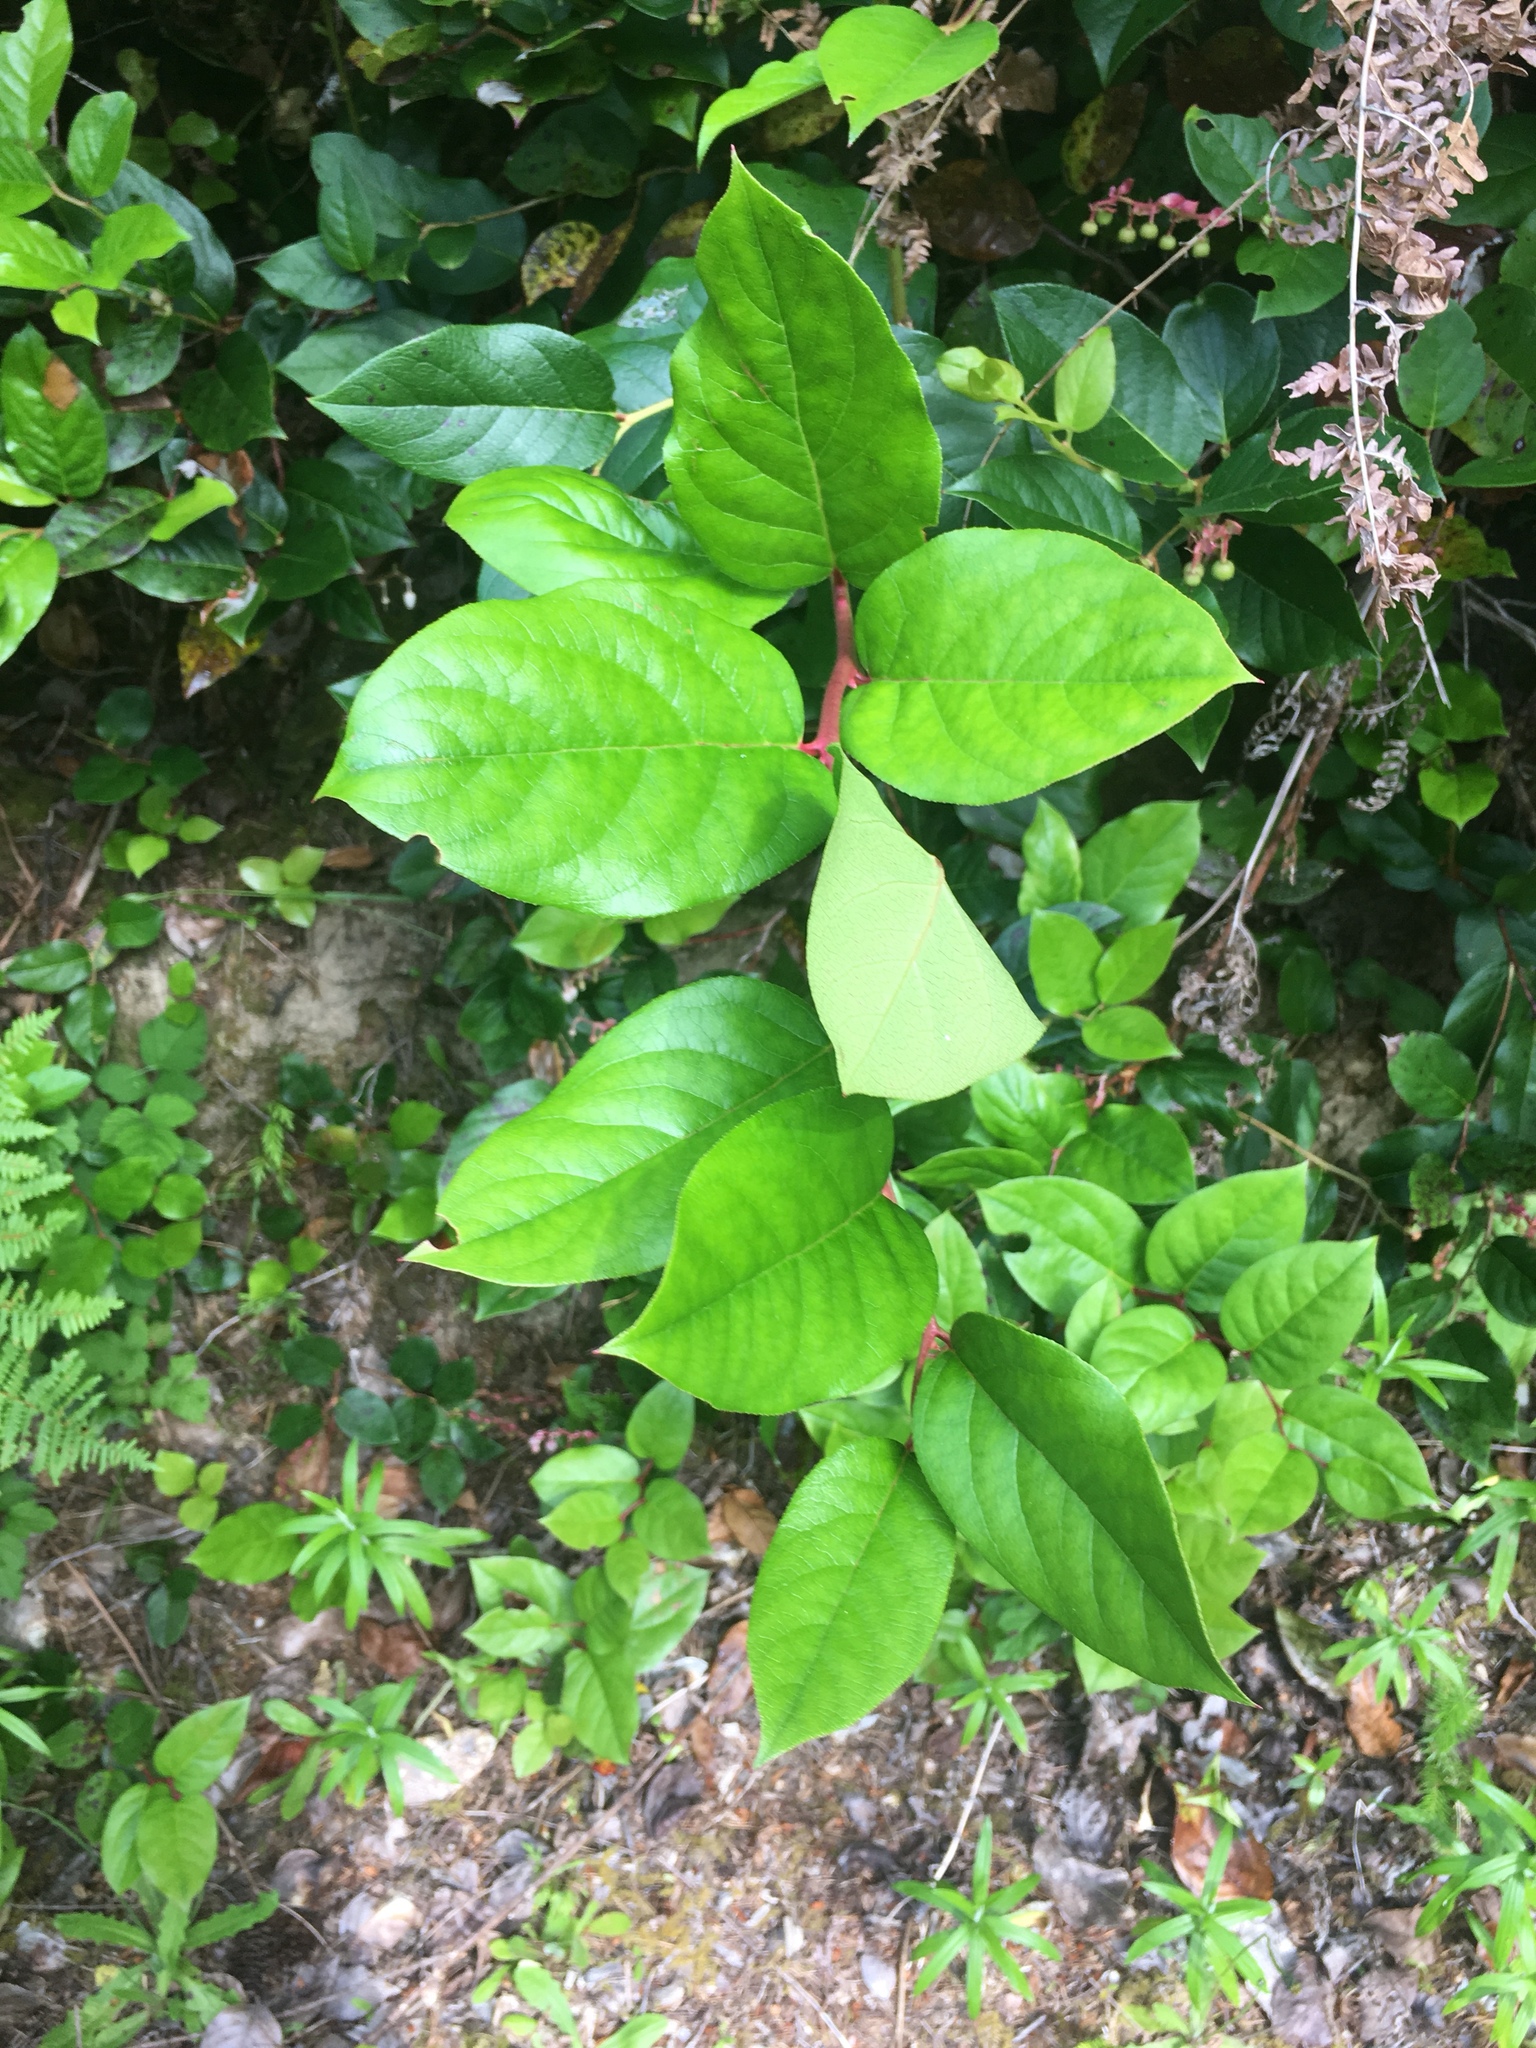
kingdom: Plantae
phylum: Tracheophyta
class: Magnoliopsida
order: Ericales
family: Ericaceae
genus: Gaultheria
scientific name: Gaultheria shallon
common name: Shallon
